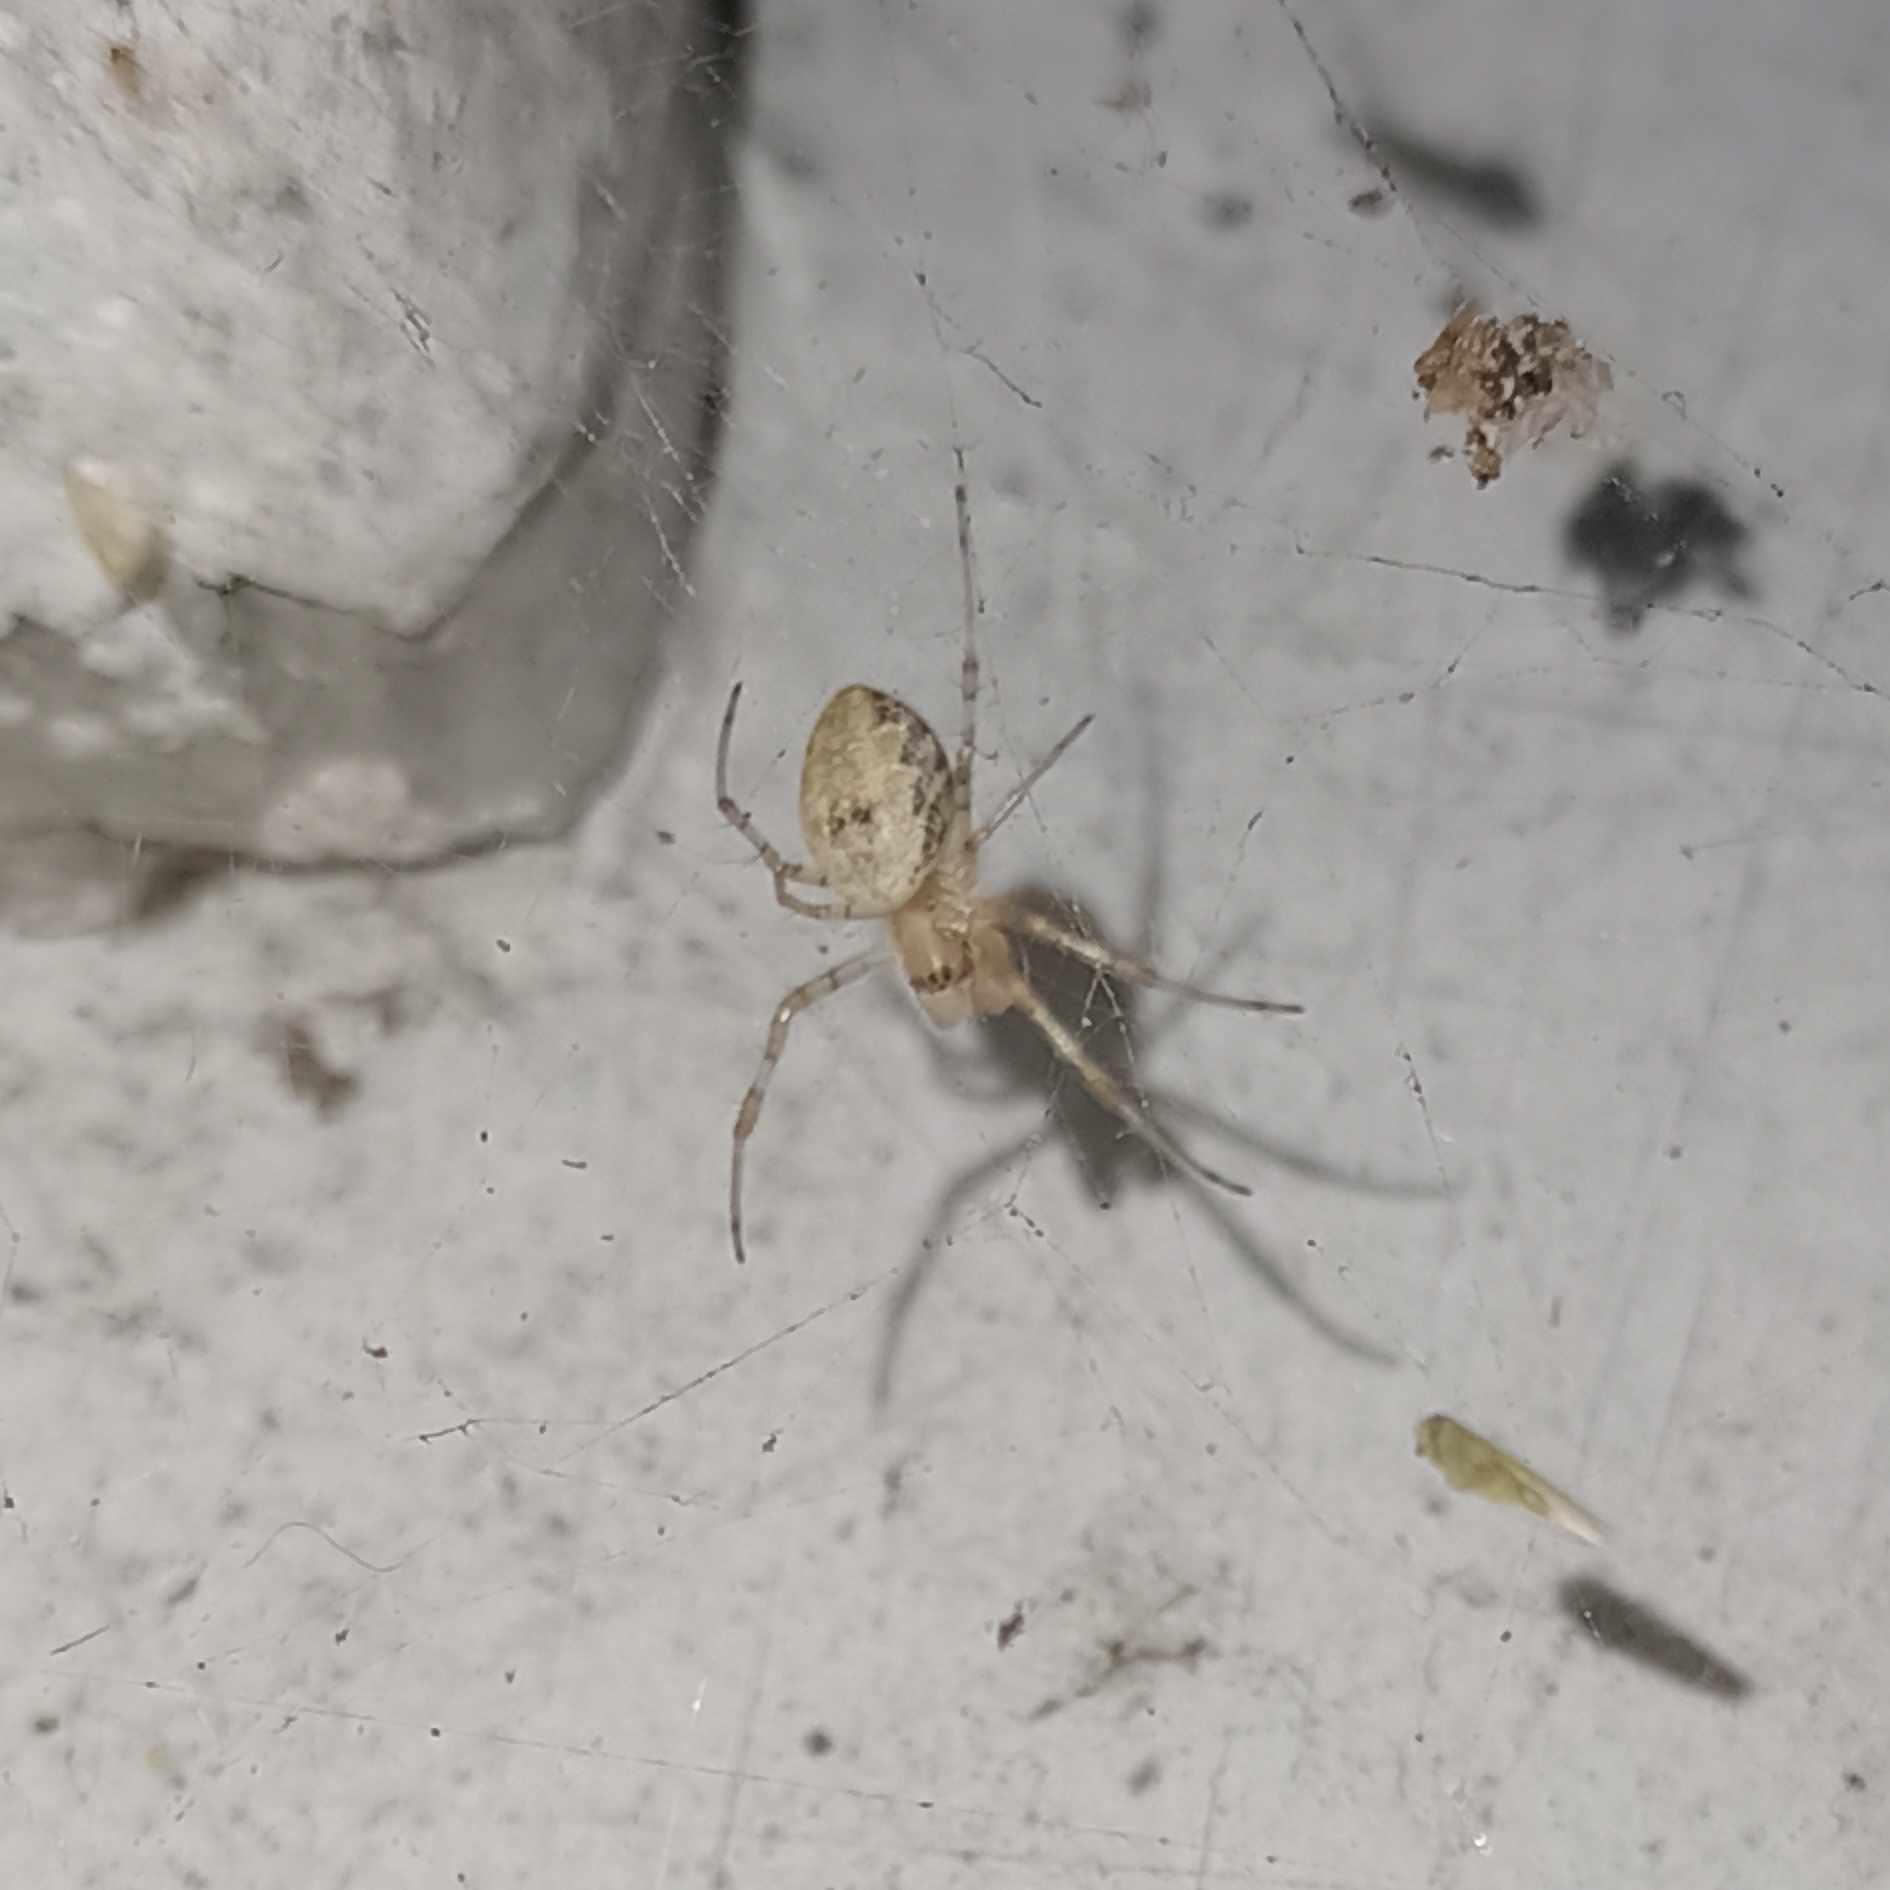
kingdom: Animalia
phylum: Arthropoda
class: Arachnida
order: Araneae
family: Araneidae
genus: Nephilingis
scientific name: Nephilingis cruentata
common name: African hermit spider
